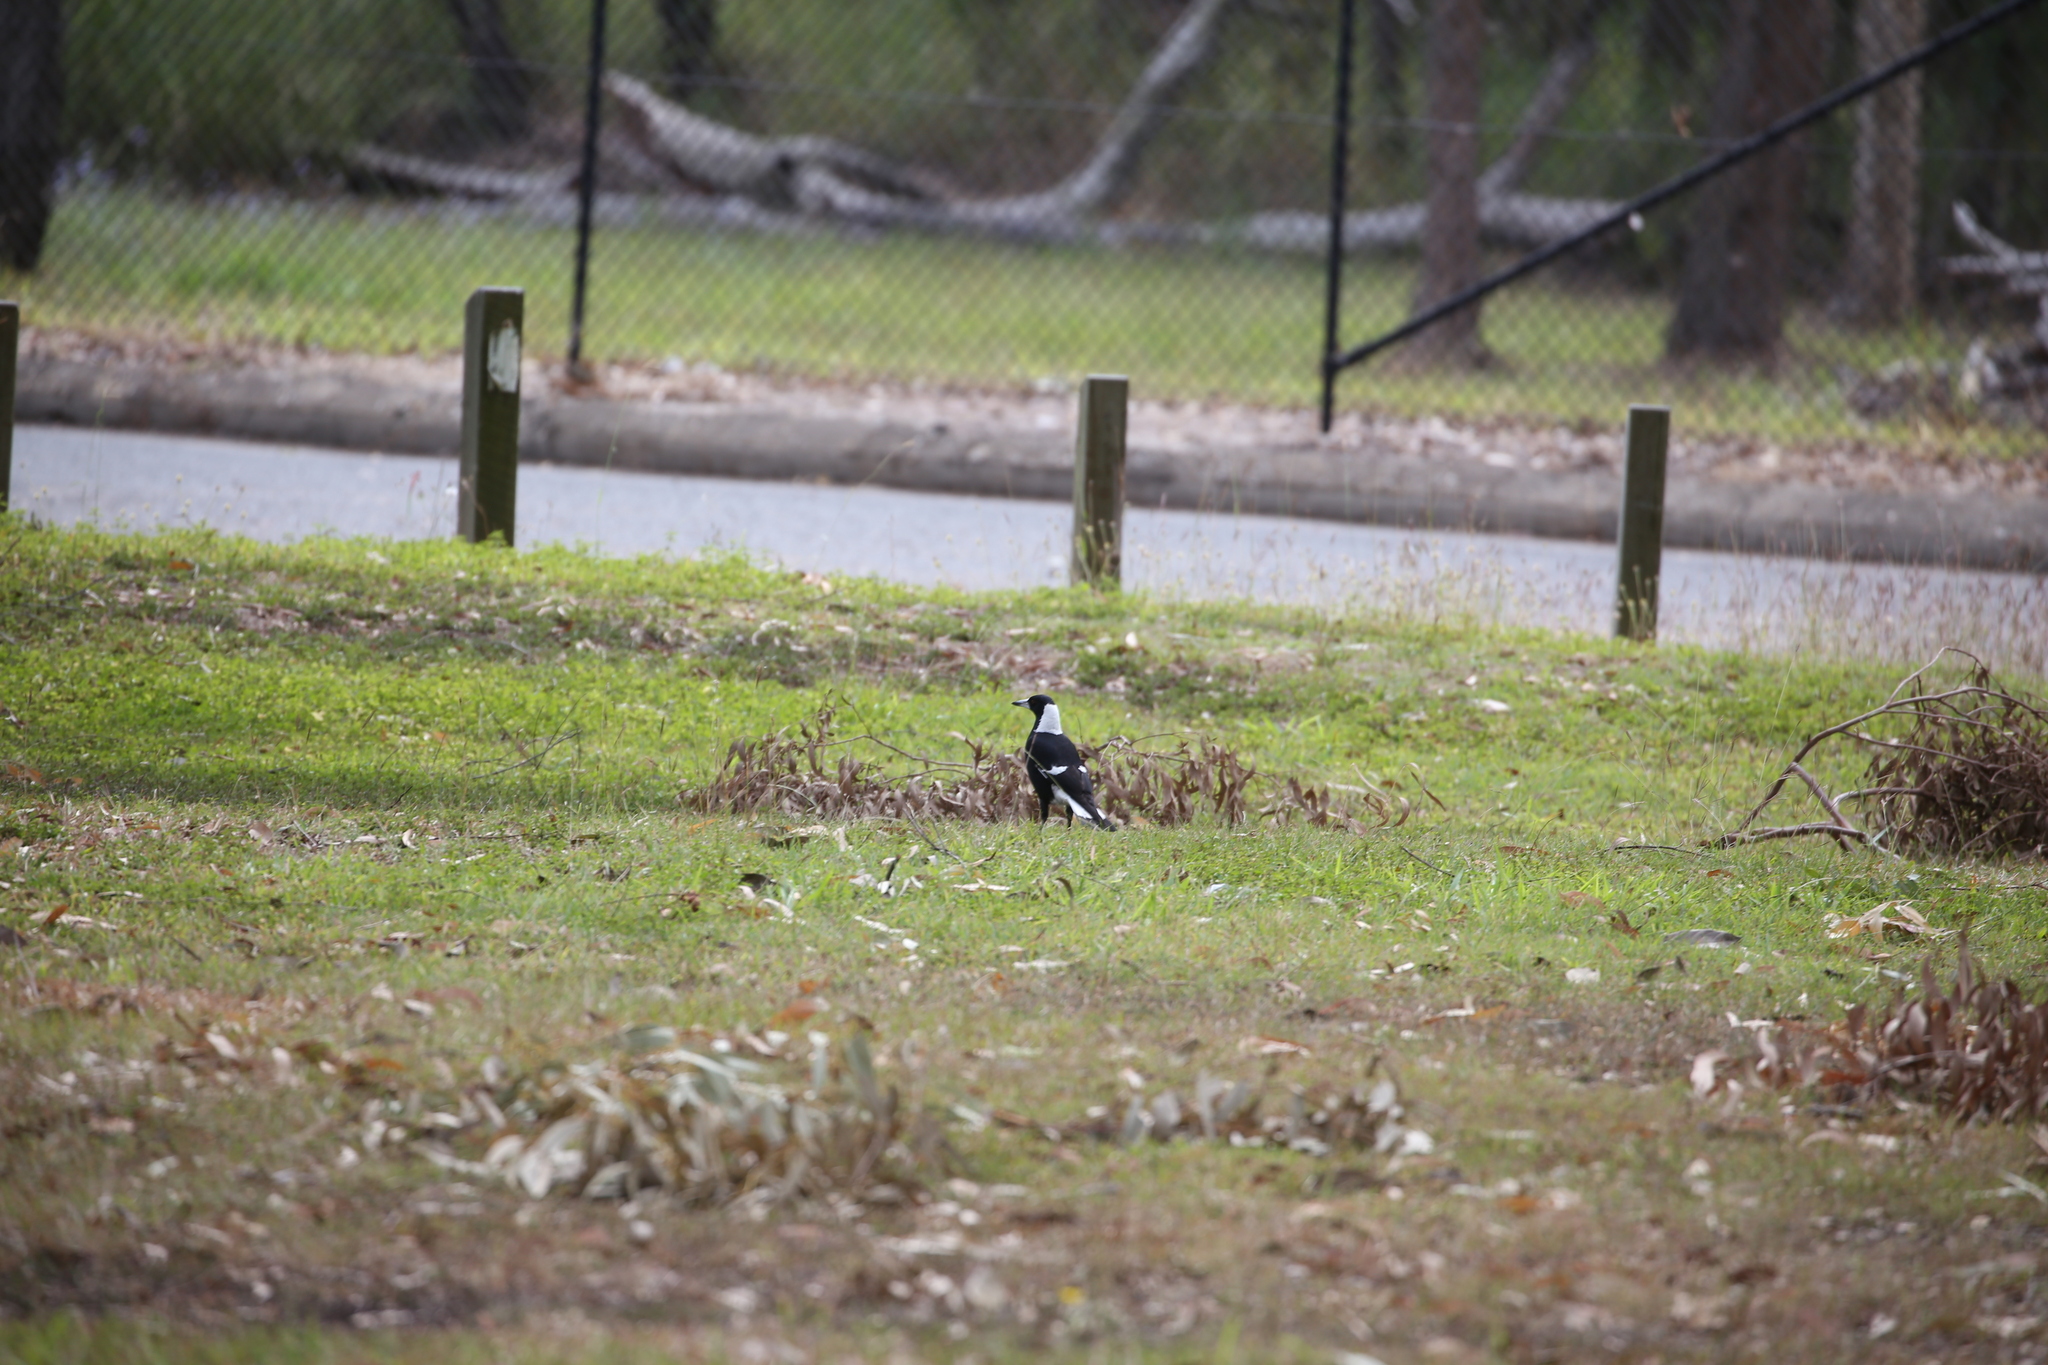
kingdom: Animalia
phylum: Chordata
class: Aves
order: Passeriformes
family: Cracticidae
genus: Gymnorhina
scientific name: Gymnorhina tibicen
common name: Australian magpie
